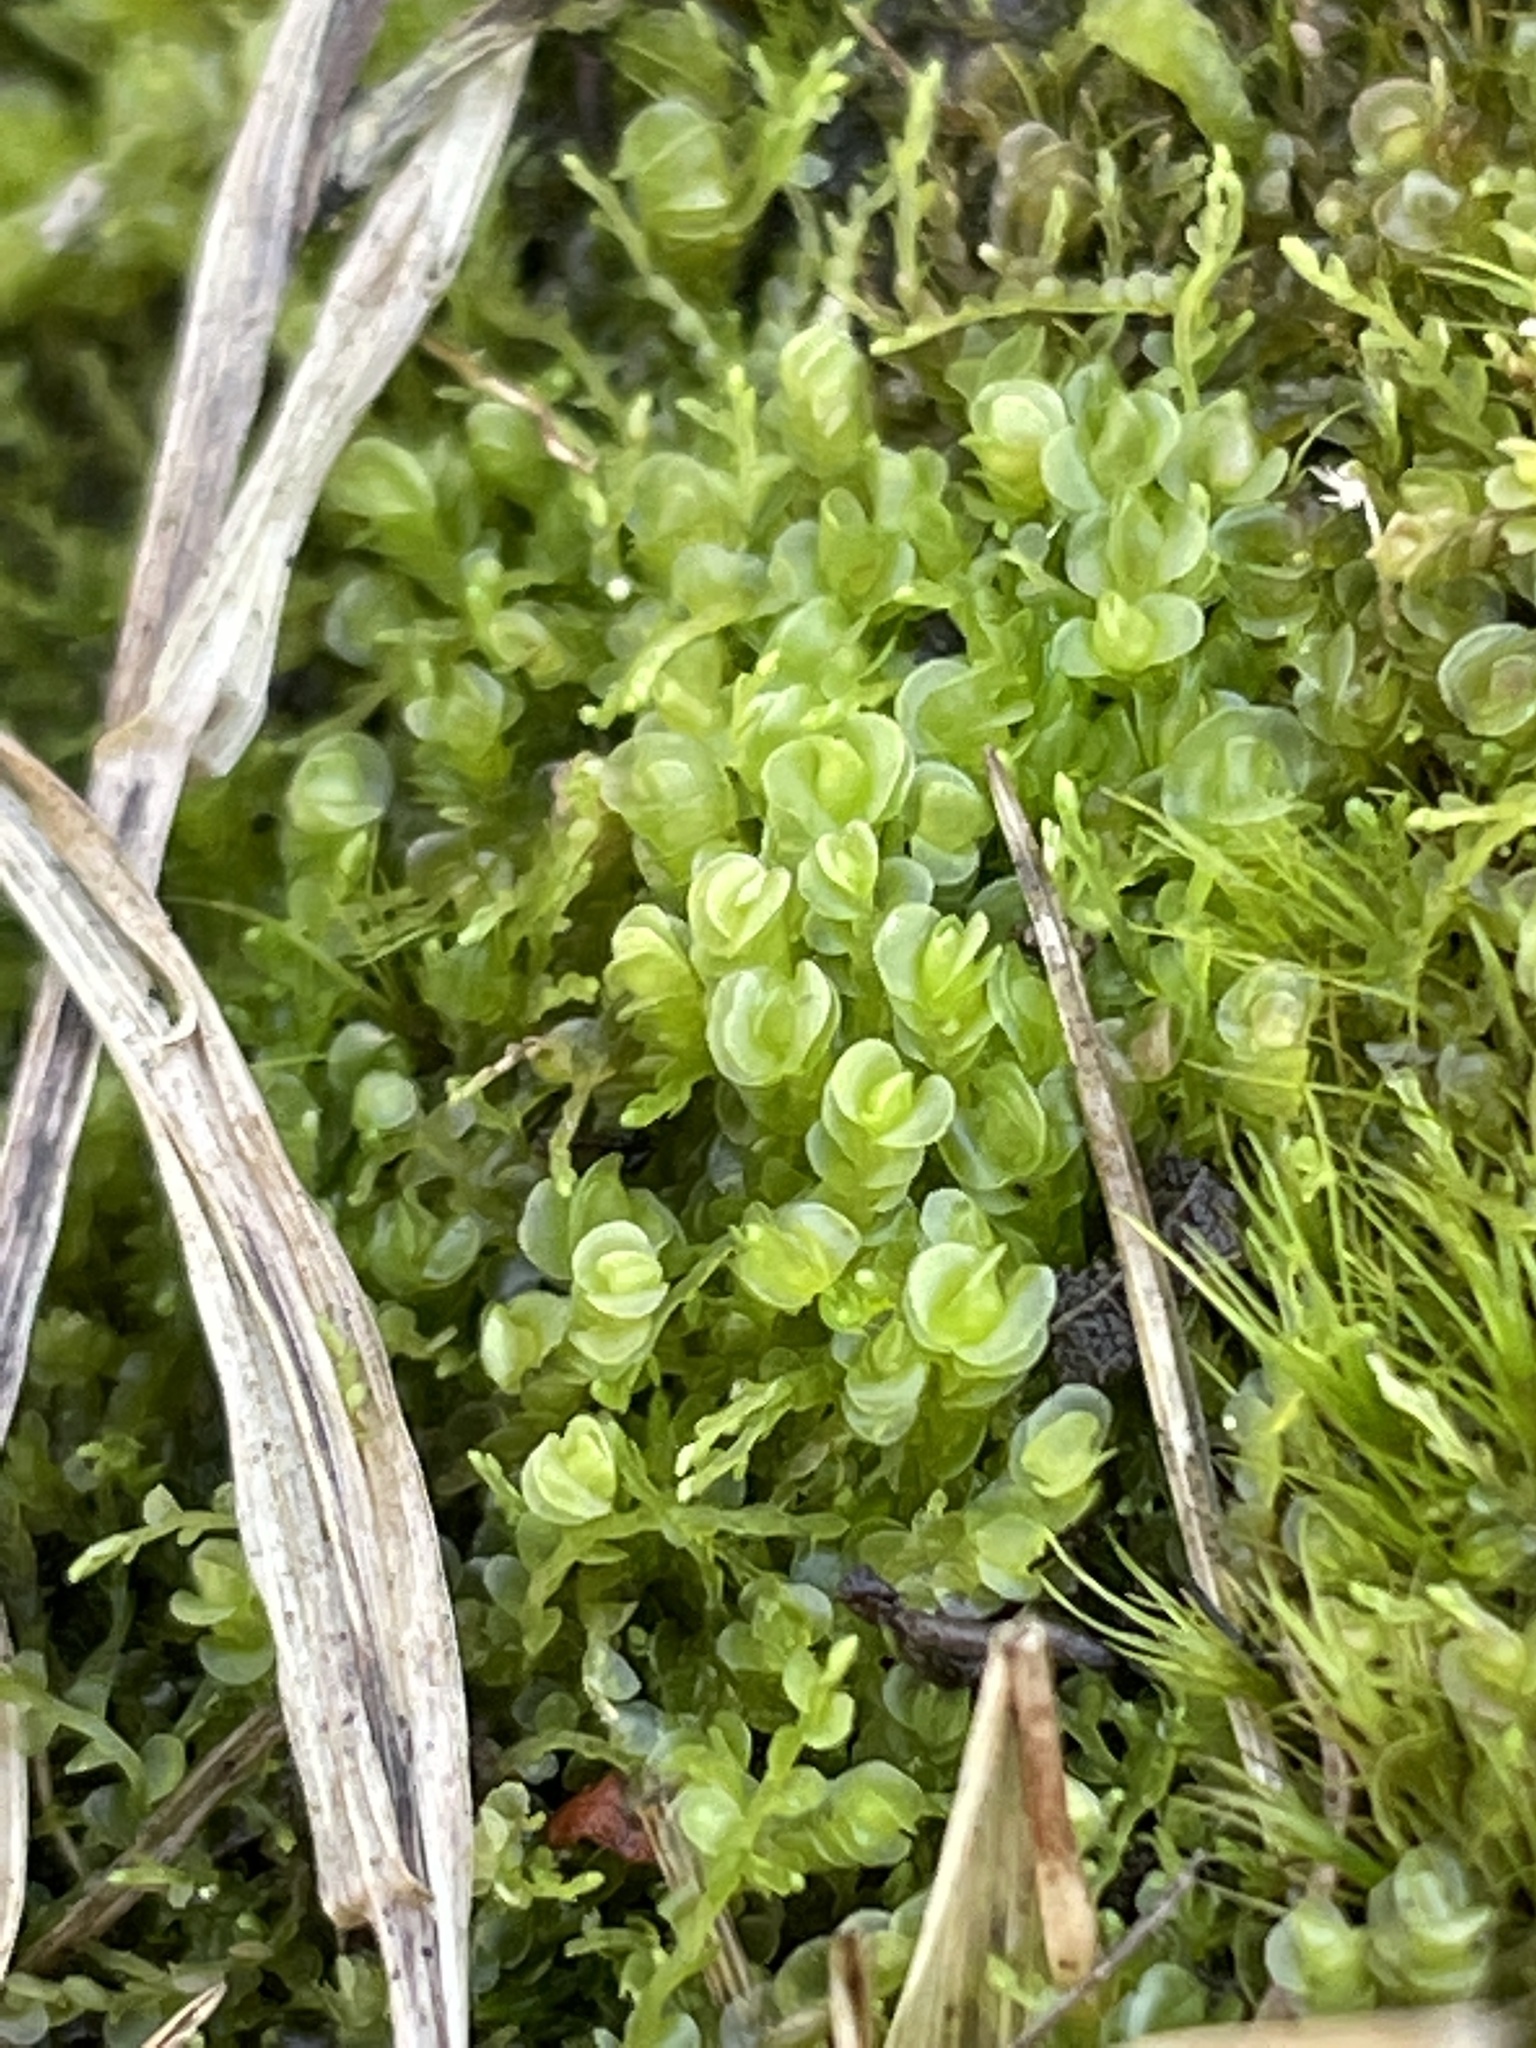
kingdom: Plantae
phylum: Marchantiophyta
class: Jungermanniopsida
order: Jungermanniales
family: Solenostomataceae
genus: Solenostoma
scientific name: Solenostoma gracillimum
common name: Crenulated flapwort
